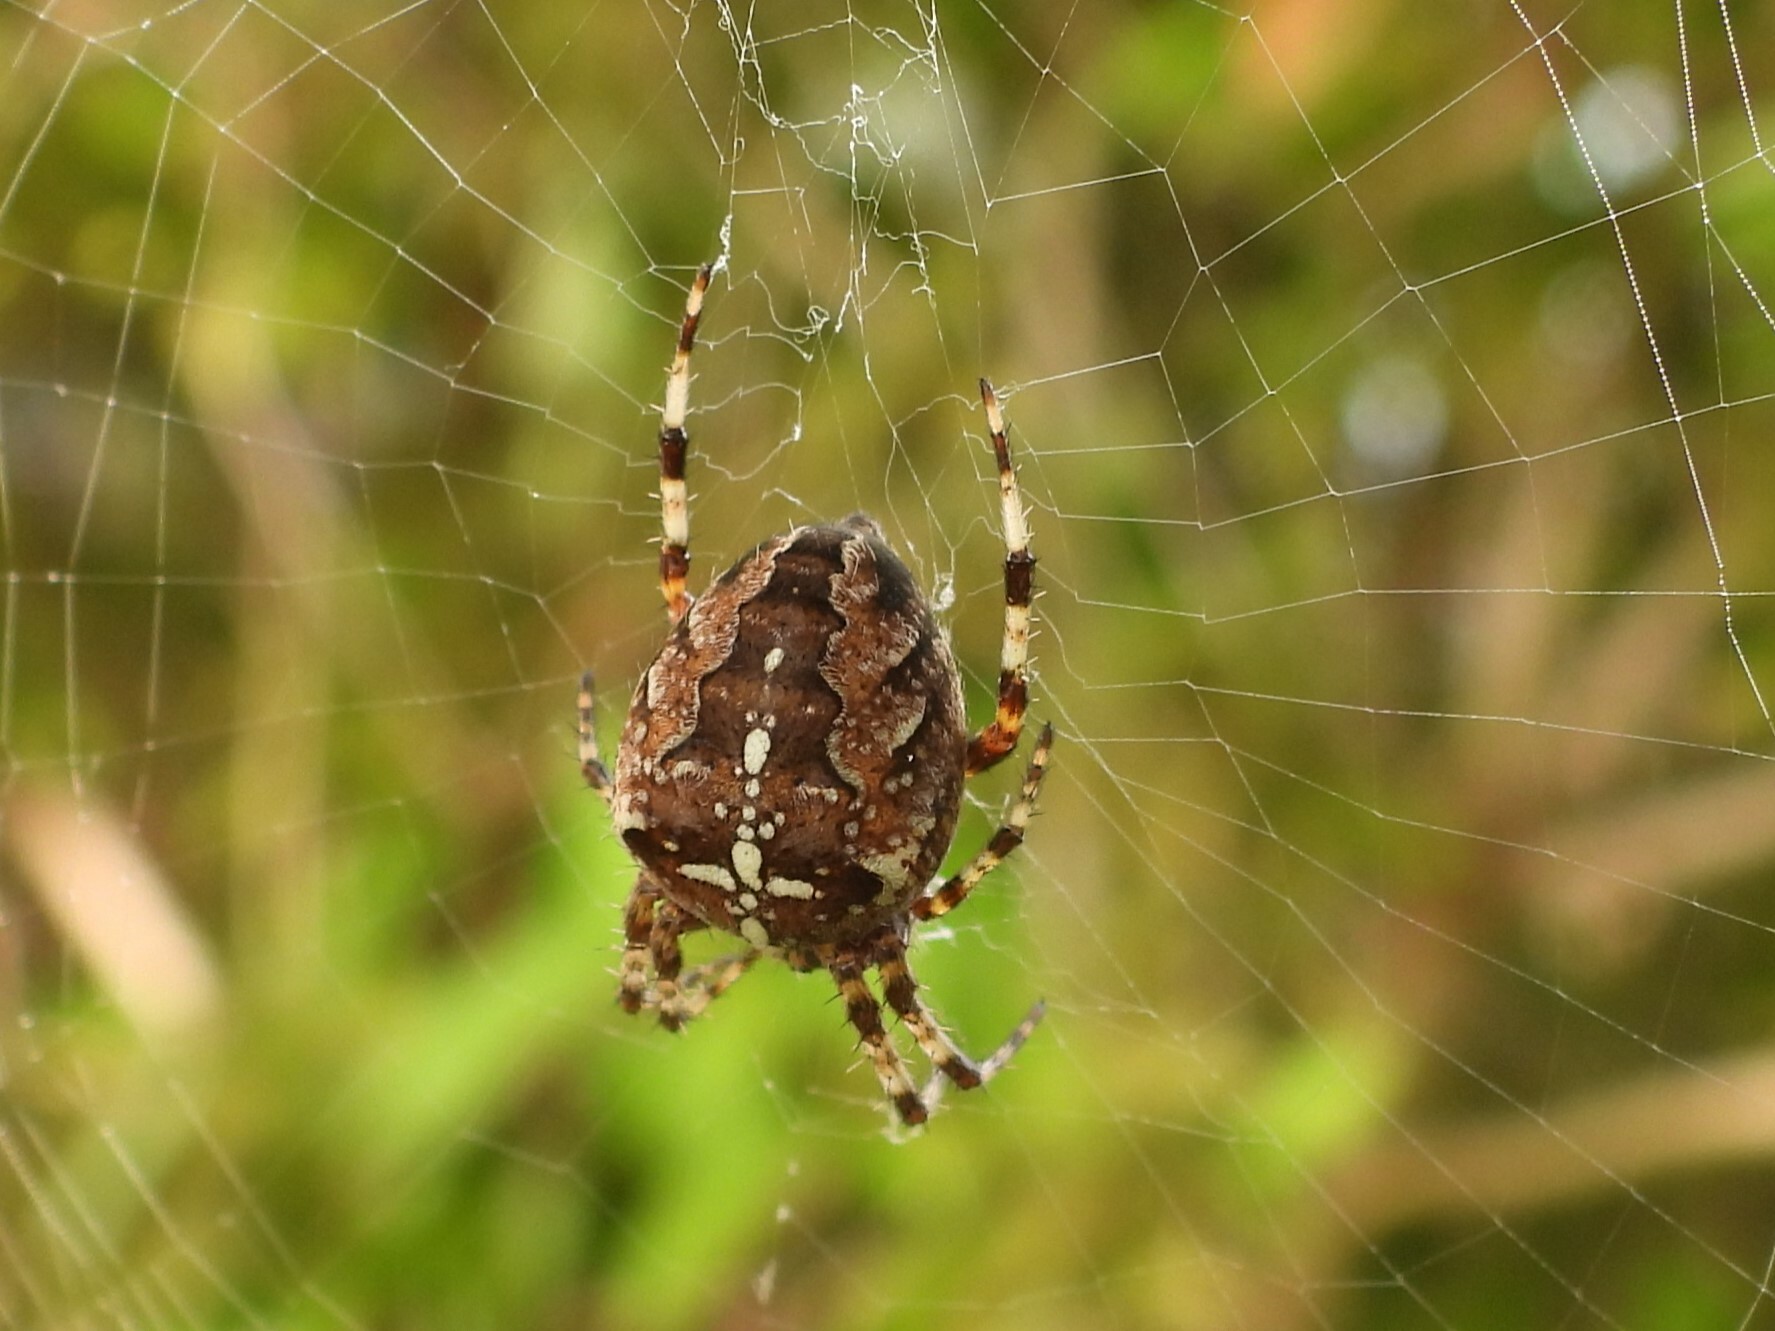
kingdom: Animalia
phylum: Arthropoda
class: Arachnida
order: Araneae
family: Araneidae
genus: Araneus
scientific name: Araneus diadematus
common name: Cross orbweaver
